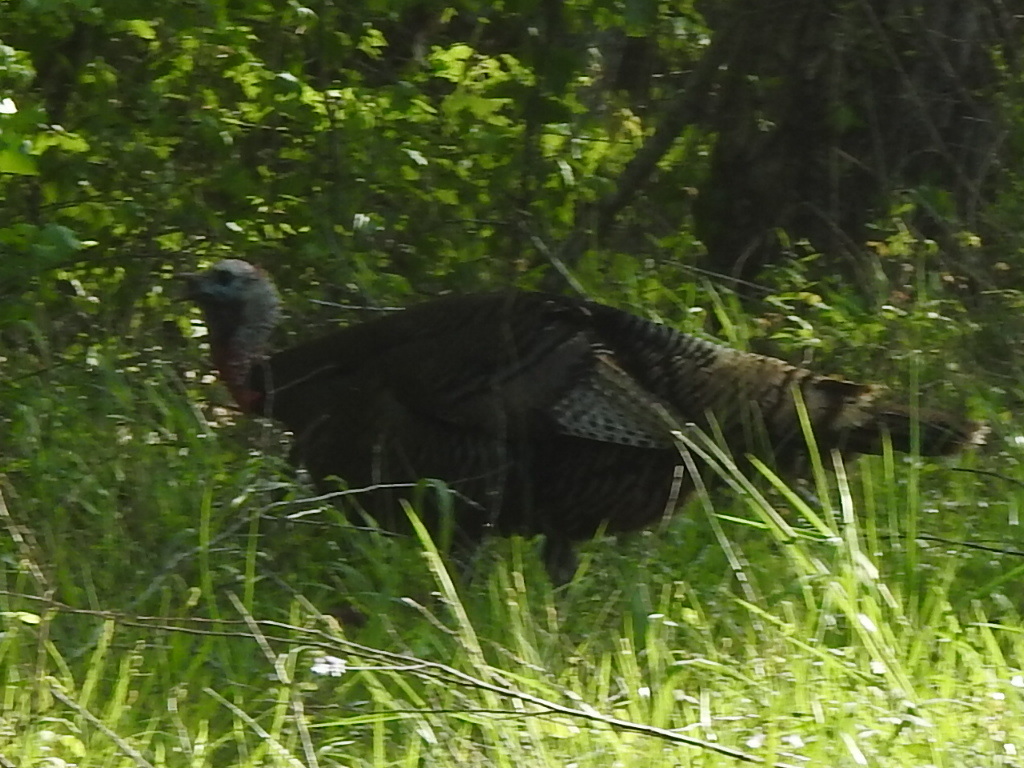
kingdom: Animalia
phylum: Chordata
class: Aves
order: Galliformes
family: Phasianidae
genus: Meleagris
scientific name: Meleagris gallopavo
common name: Wild turkey
